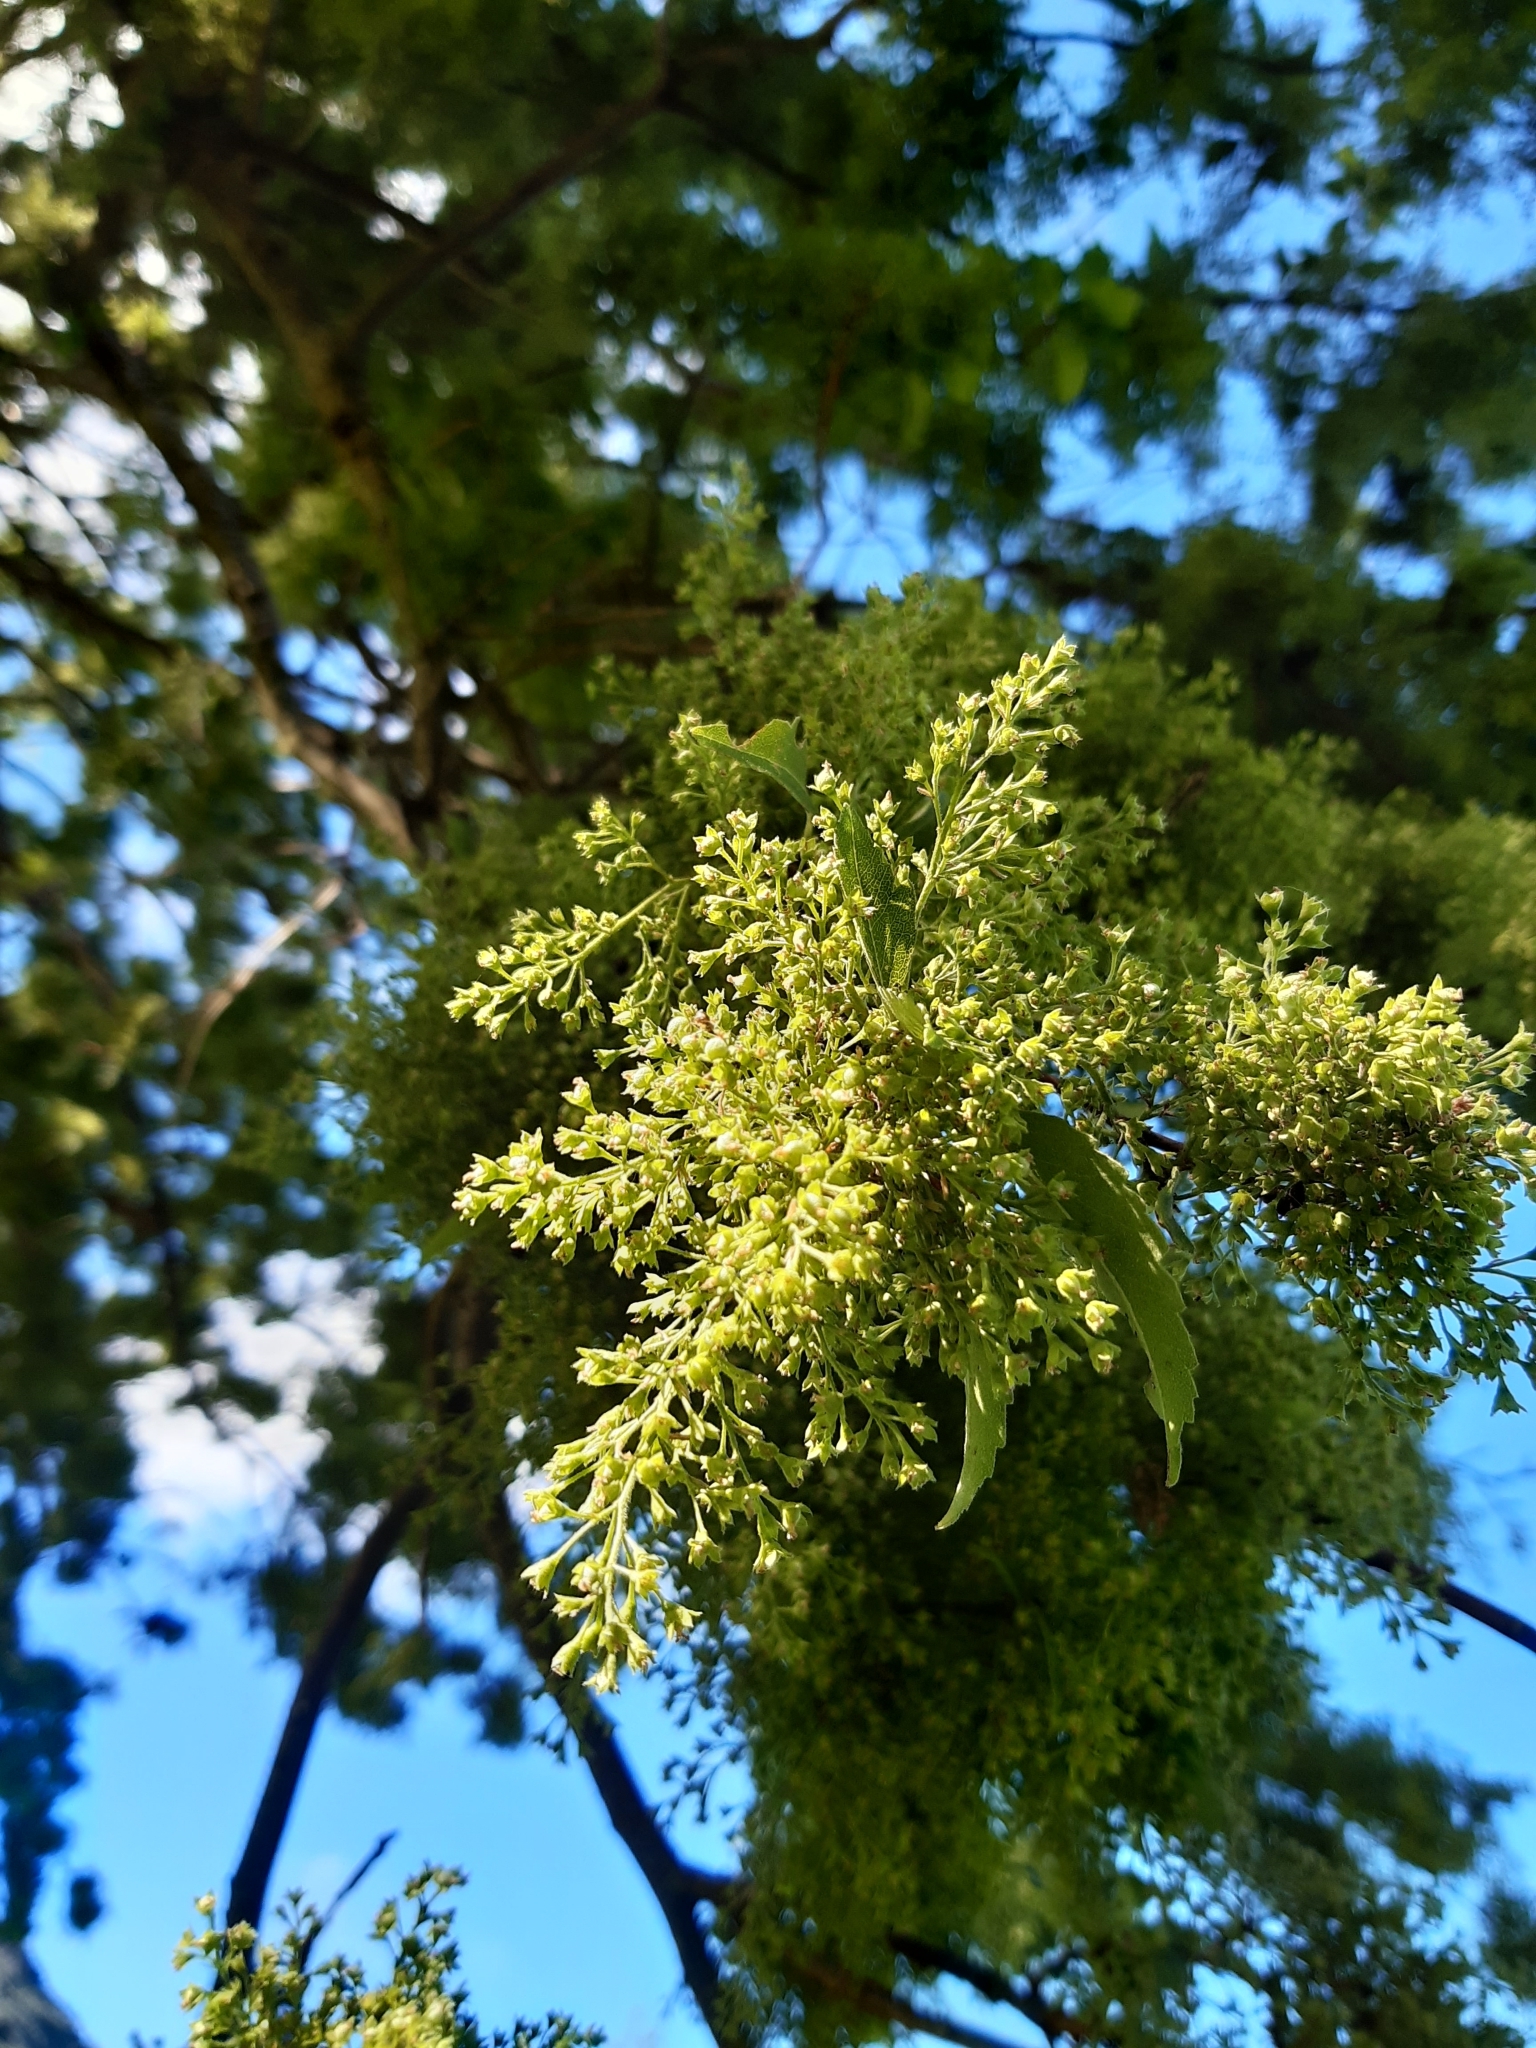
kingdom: Plantae
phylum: Tracheophyta
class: Magnoliopsida
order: Malvales
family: Malvaceae
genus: Plagianthus
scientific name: Plagianthus regius
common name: Manatu
